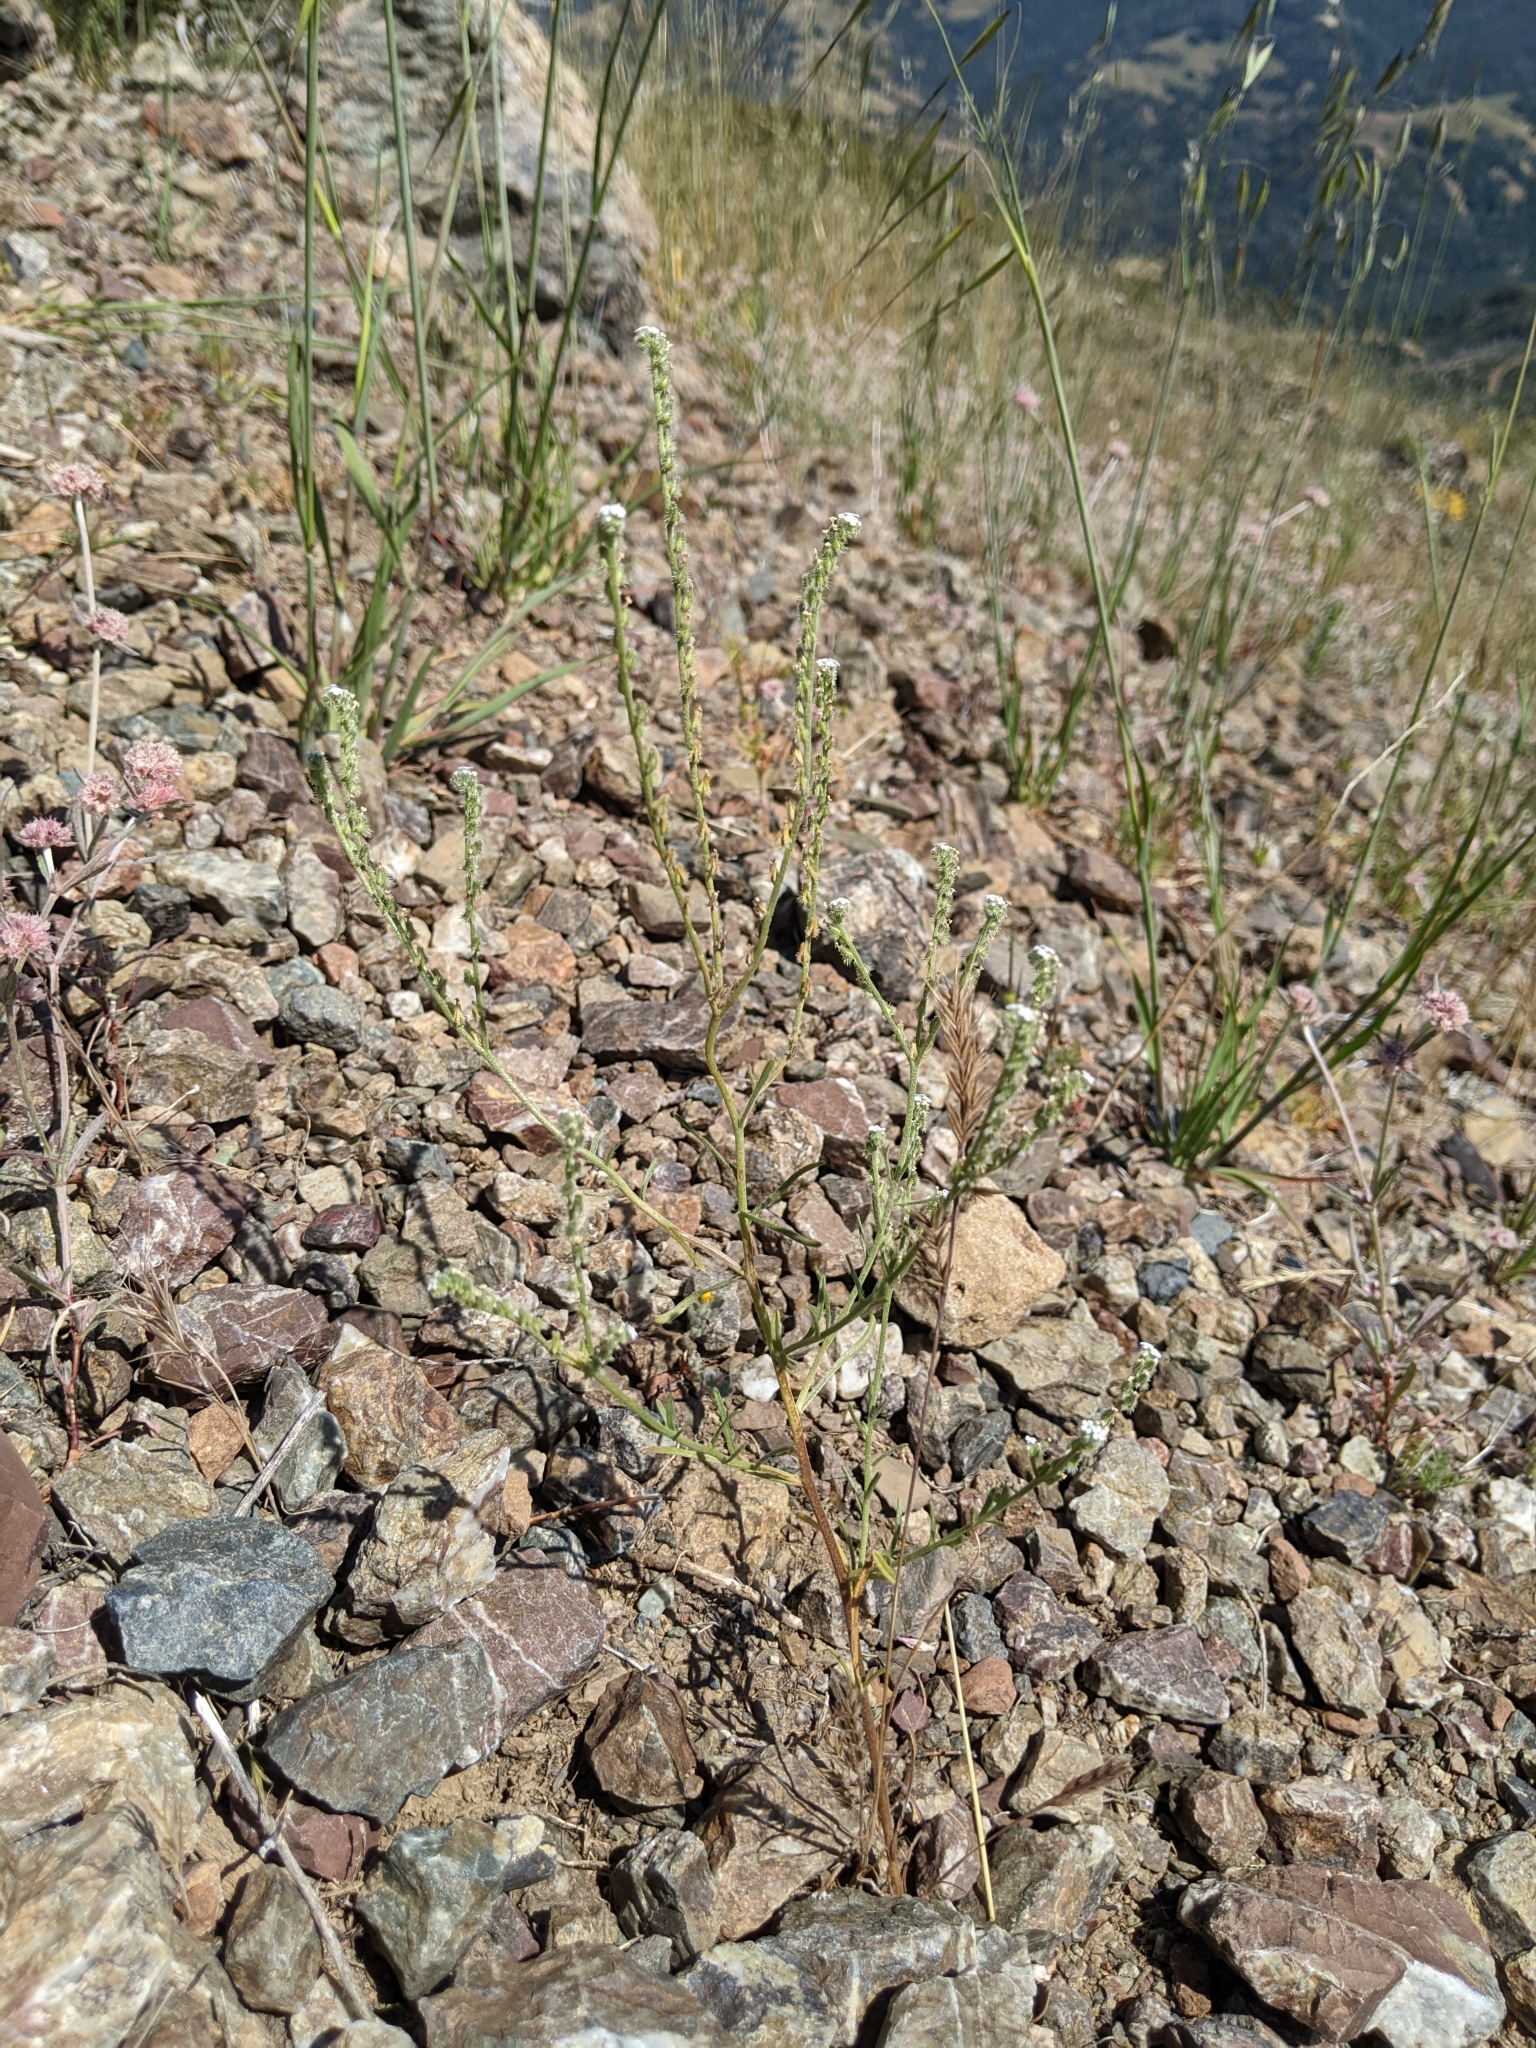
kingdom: Plantae
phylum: Tracheophyta
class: Magnoliopsida
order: Boraginales
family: Boraginaceae
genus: Cryptantha
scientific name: Cryptantha flaccida
